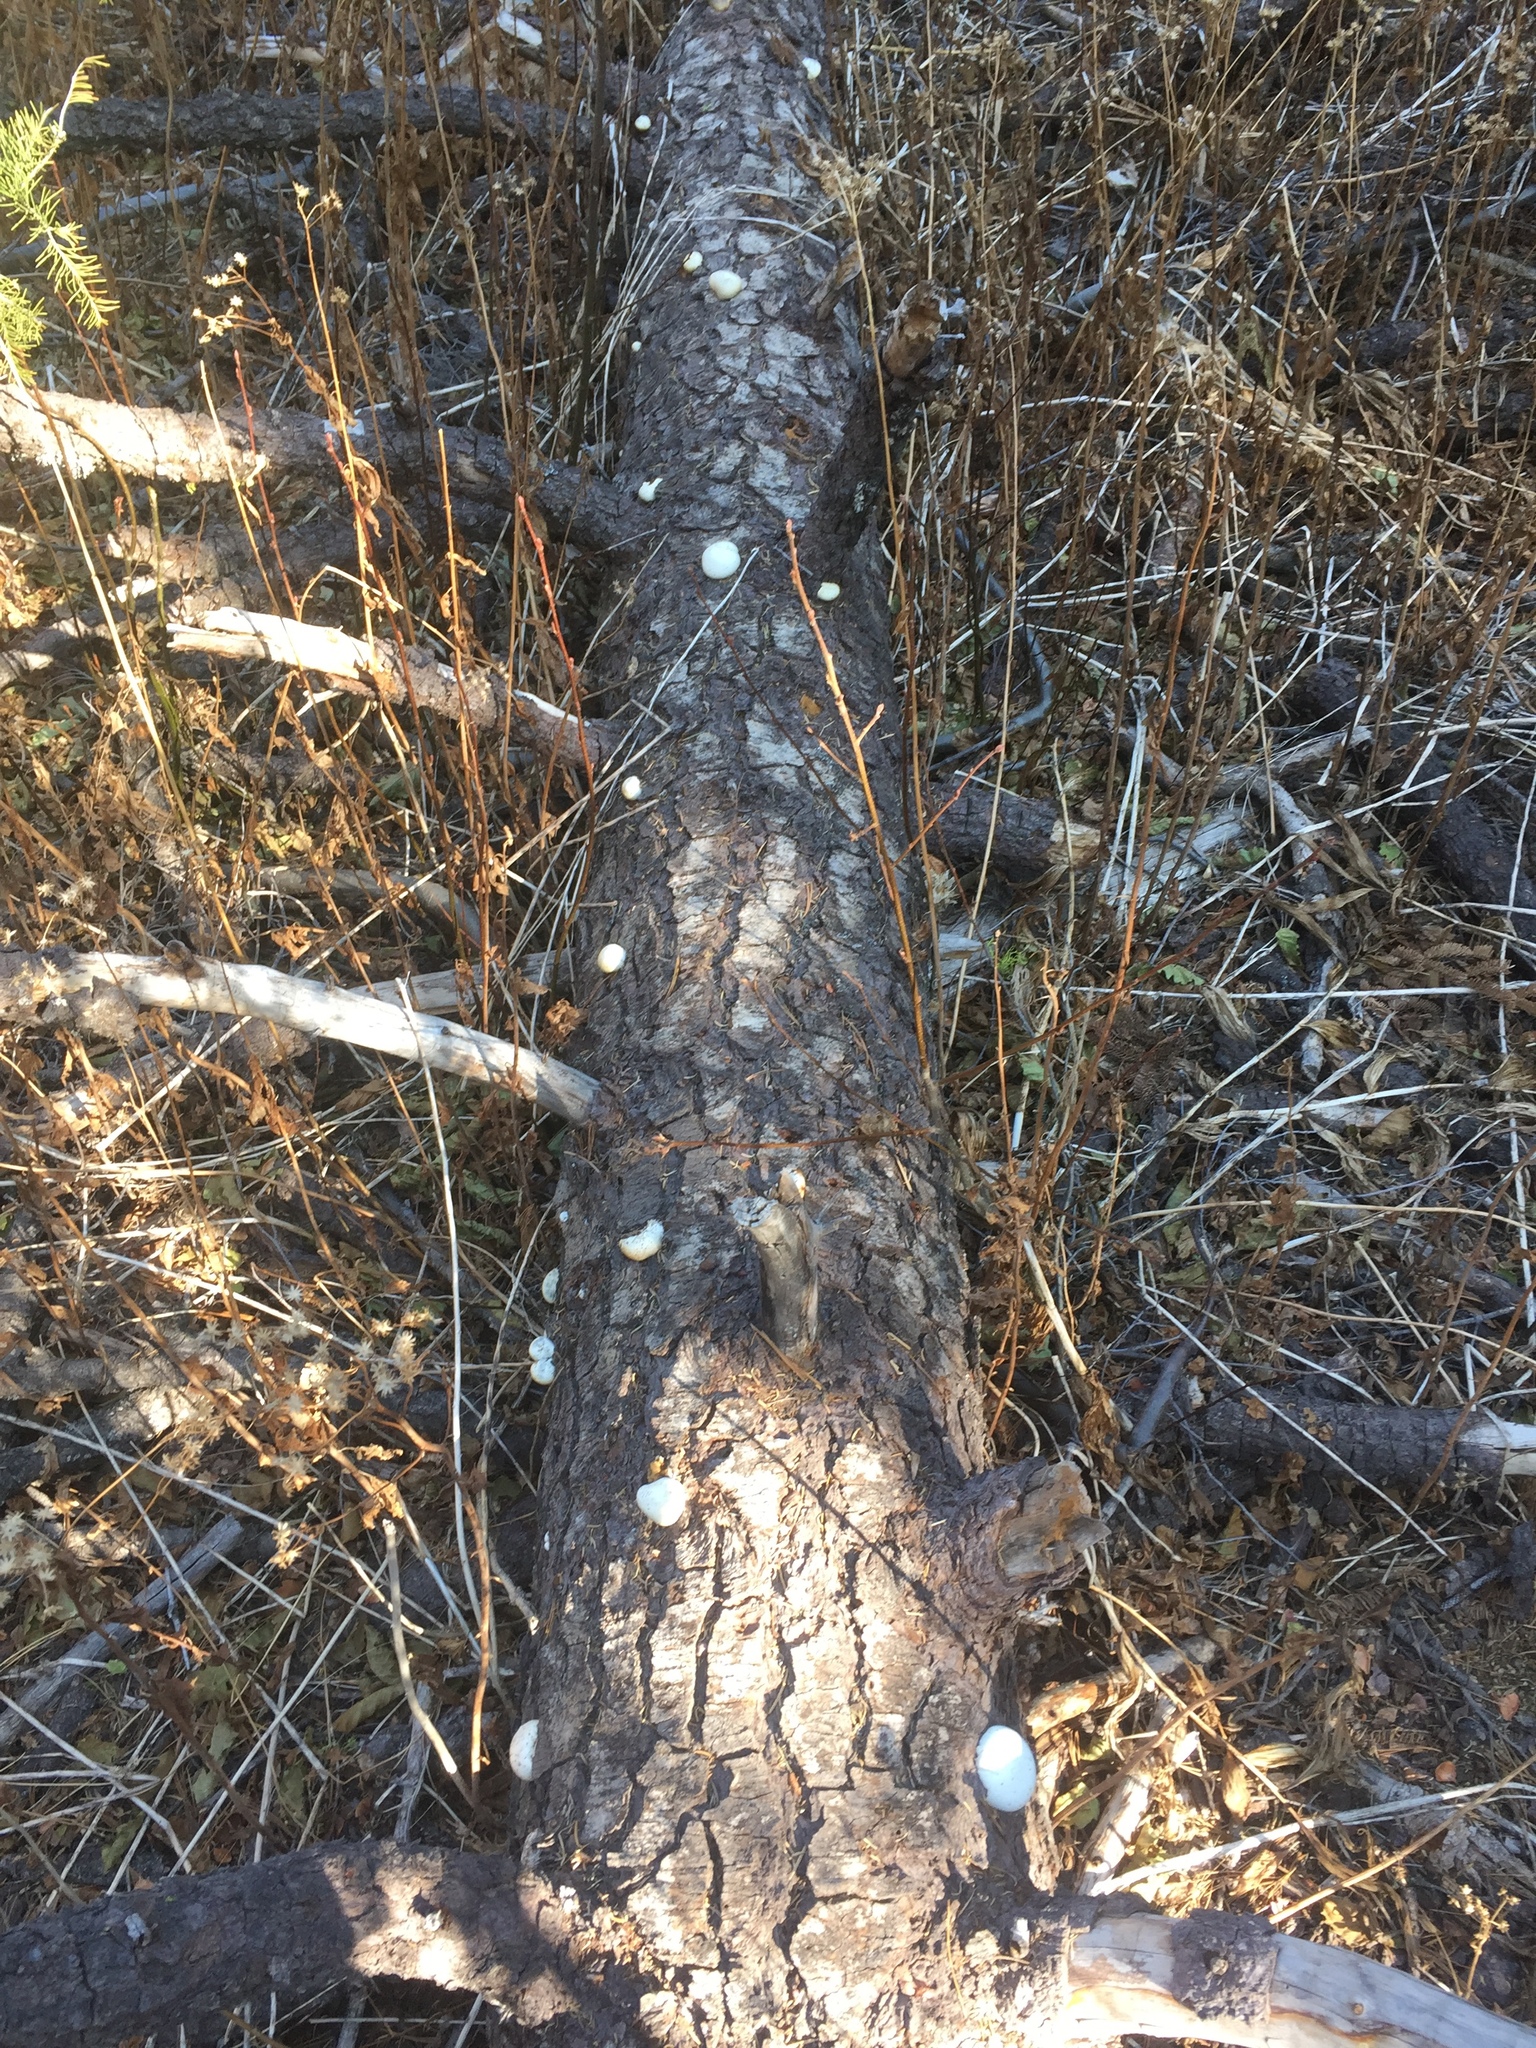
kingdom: Fungi
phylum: Basidiomycota
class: Agaricomycetes
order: Polyporales
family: Polyporaceae
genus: Cryptoporus
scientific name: Cryptoporus volvatus
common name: Veiled polypore
